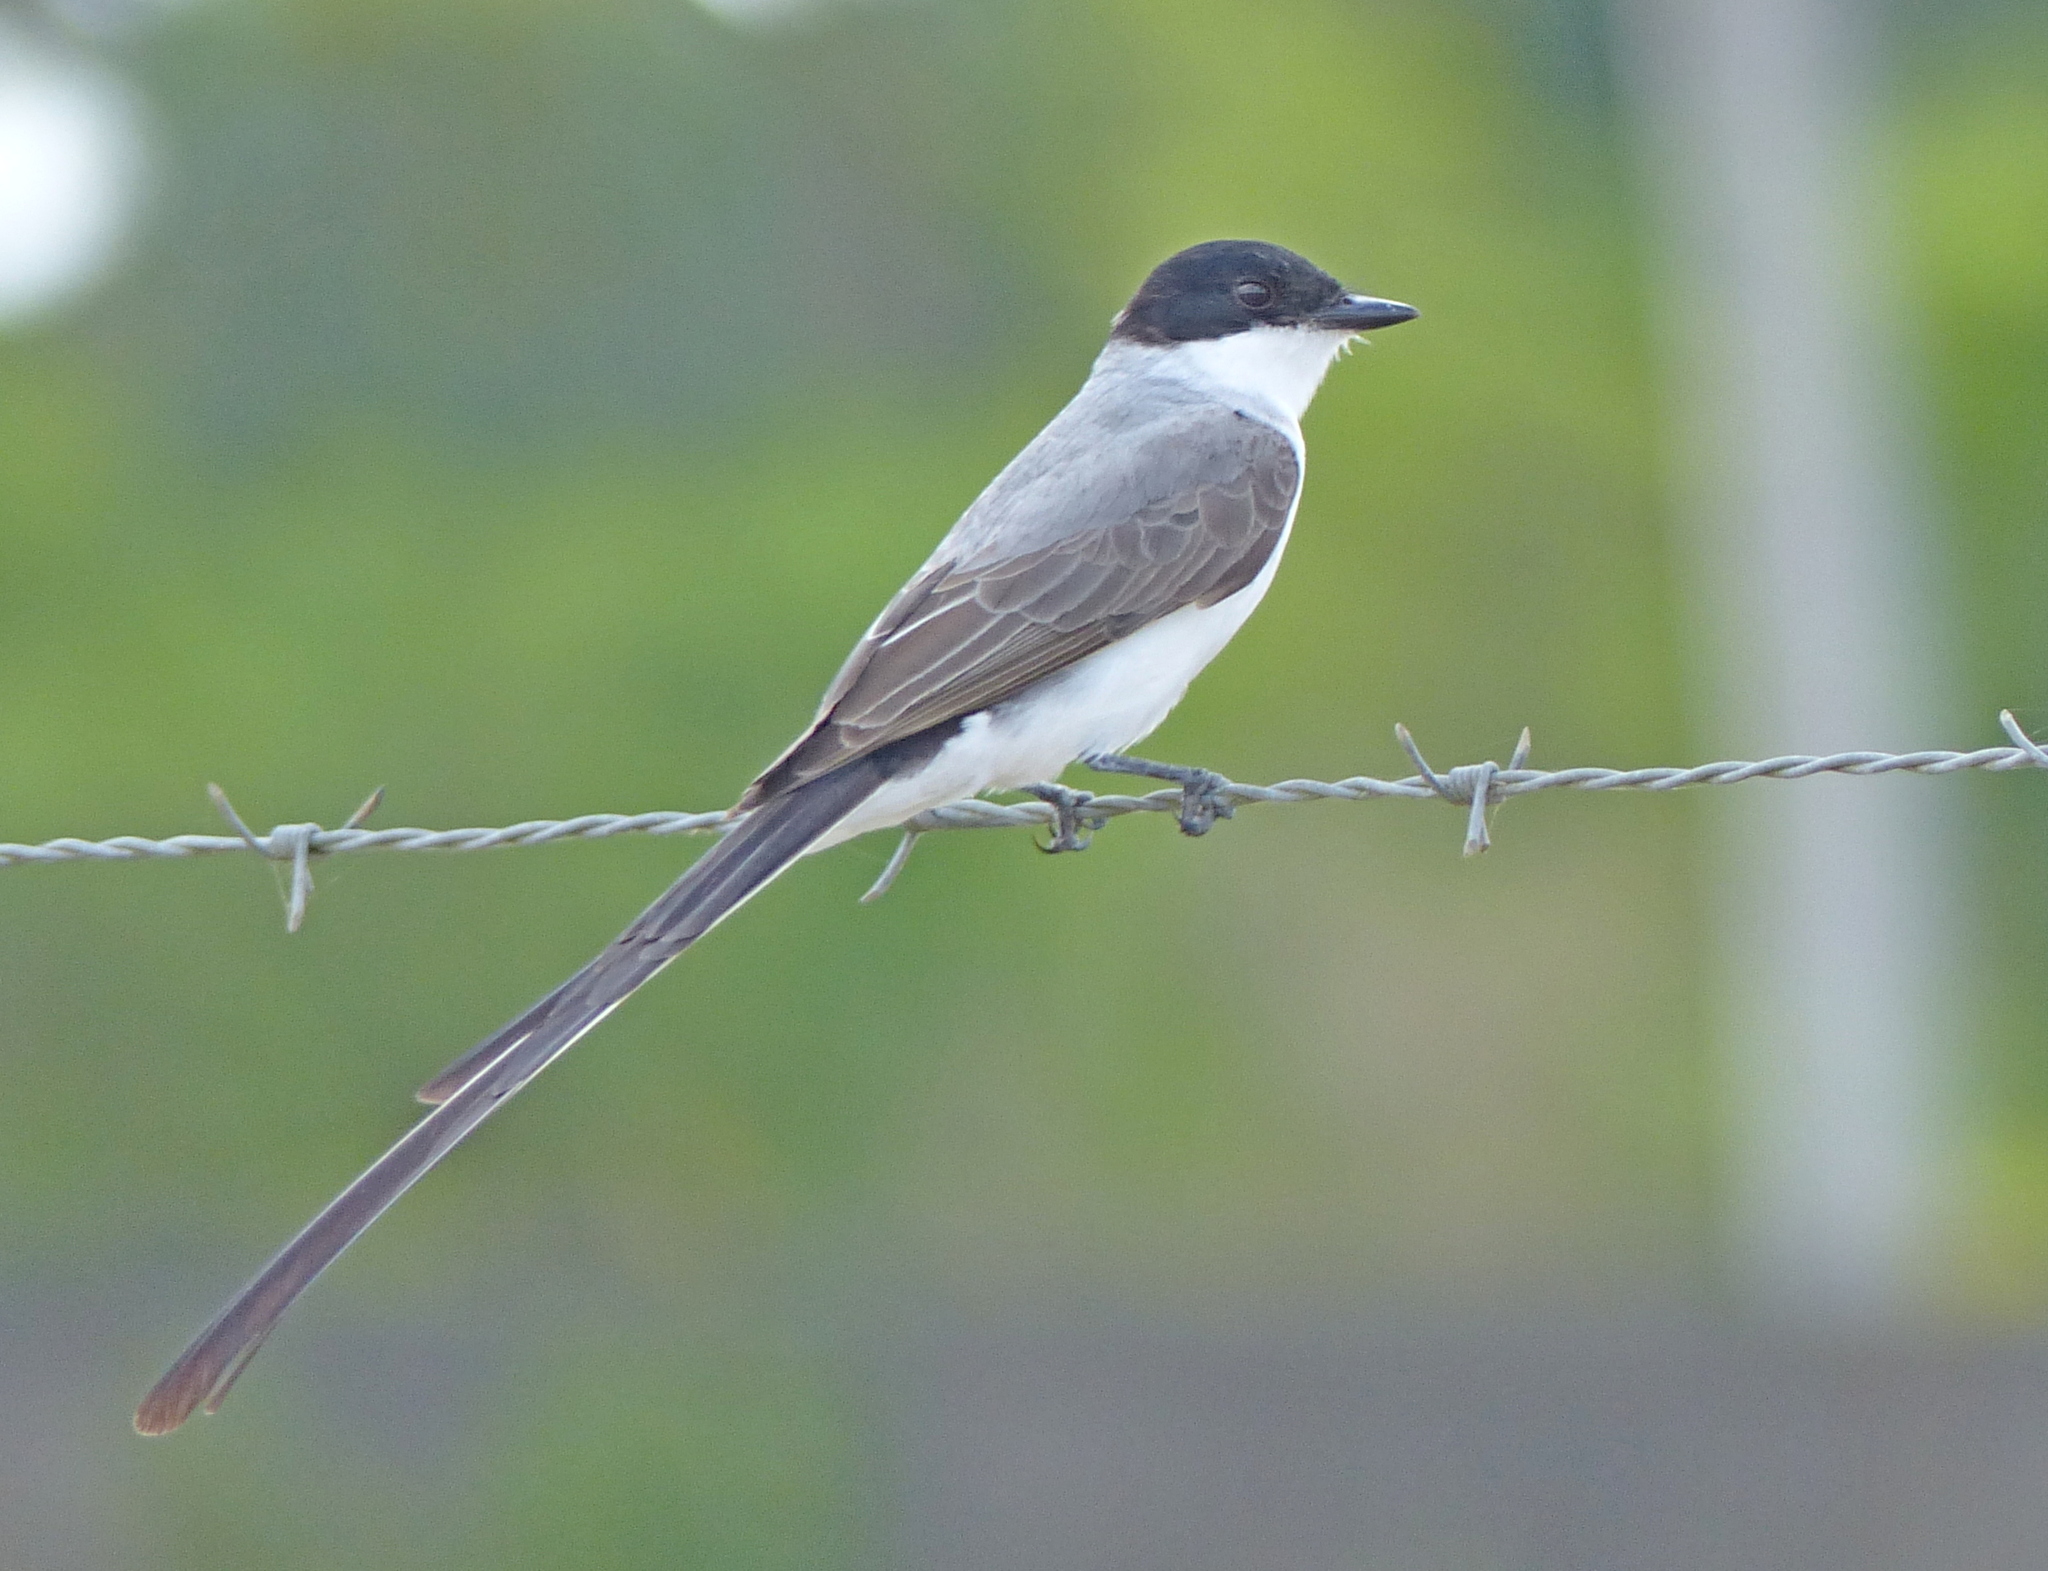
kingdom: Animalia
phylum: Chordata
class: Aves
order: Passeriformes
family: Tyrannidae
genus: Tyrannus
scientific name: Tyrannus savana
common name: Fork-tailed flycatcher
